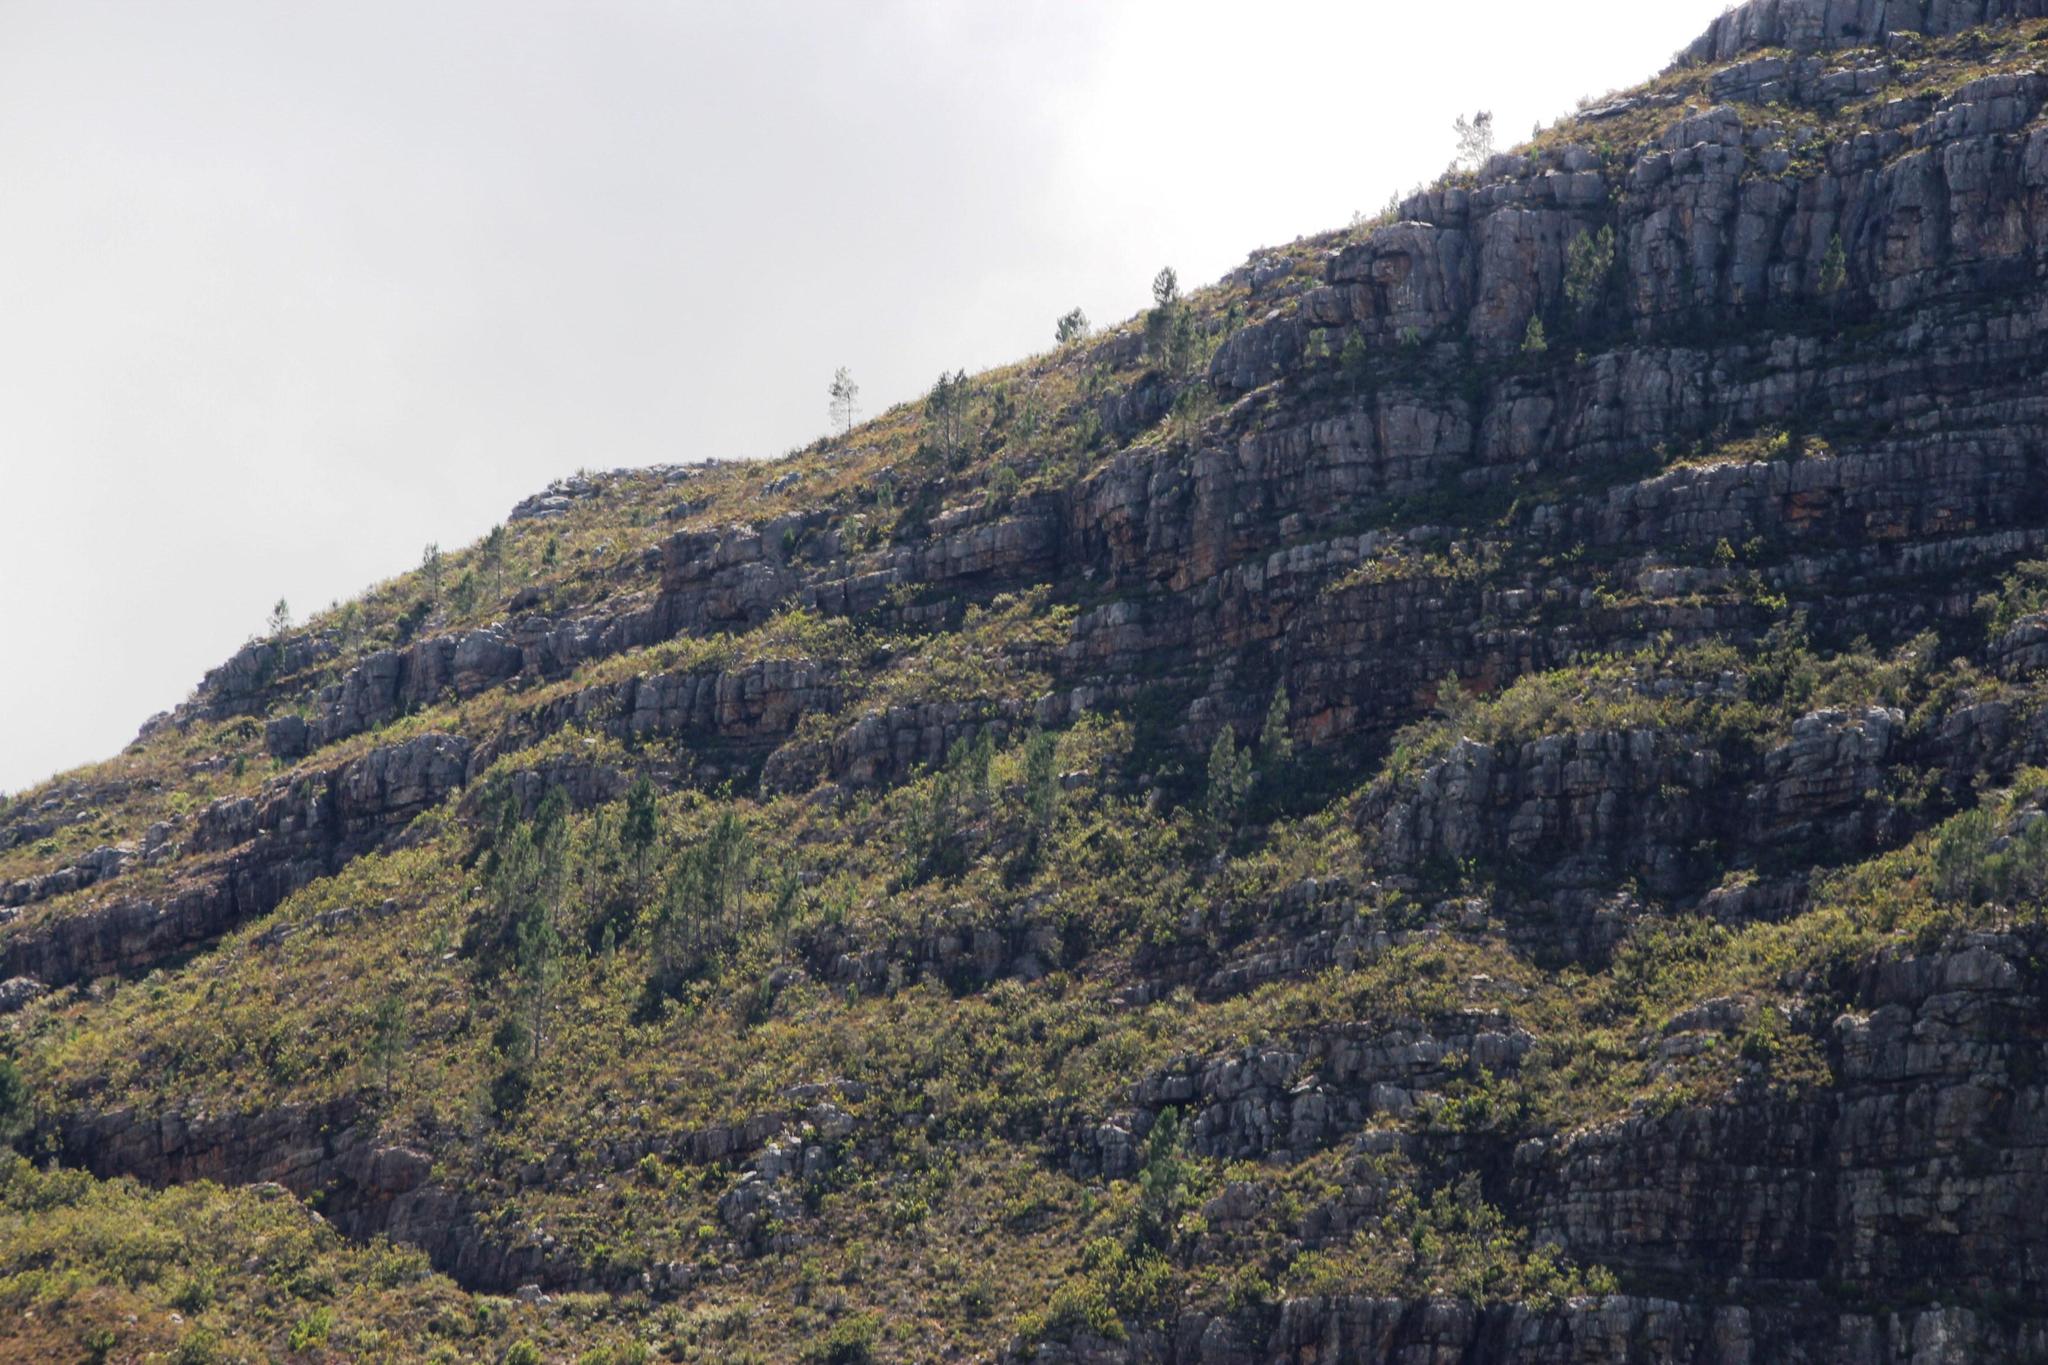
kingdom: Plantae
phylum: Tracheophyta
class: Pinopsida
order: Pinales
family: Pinaceae
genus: Pinus
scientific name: Pinus pinaster
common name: Maritime pine
